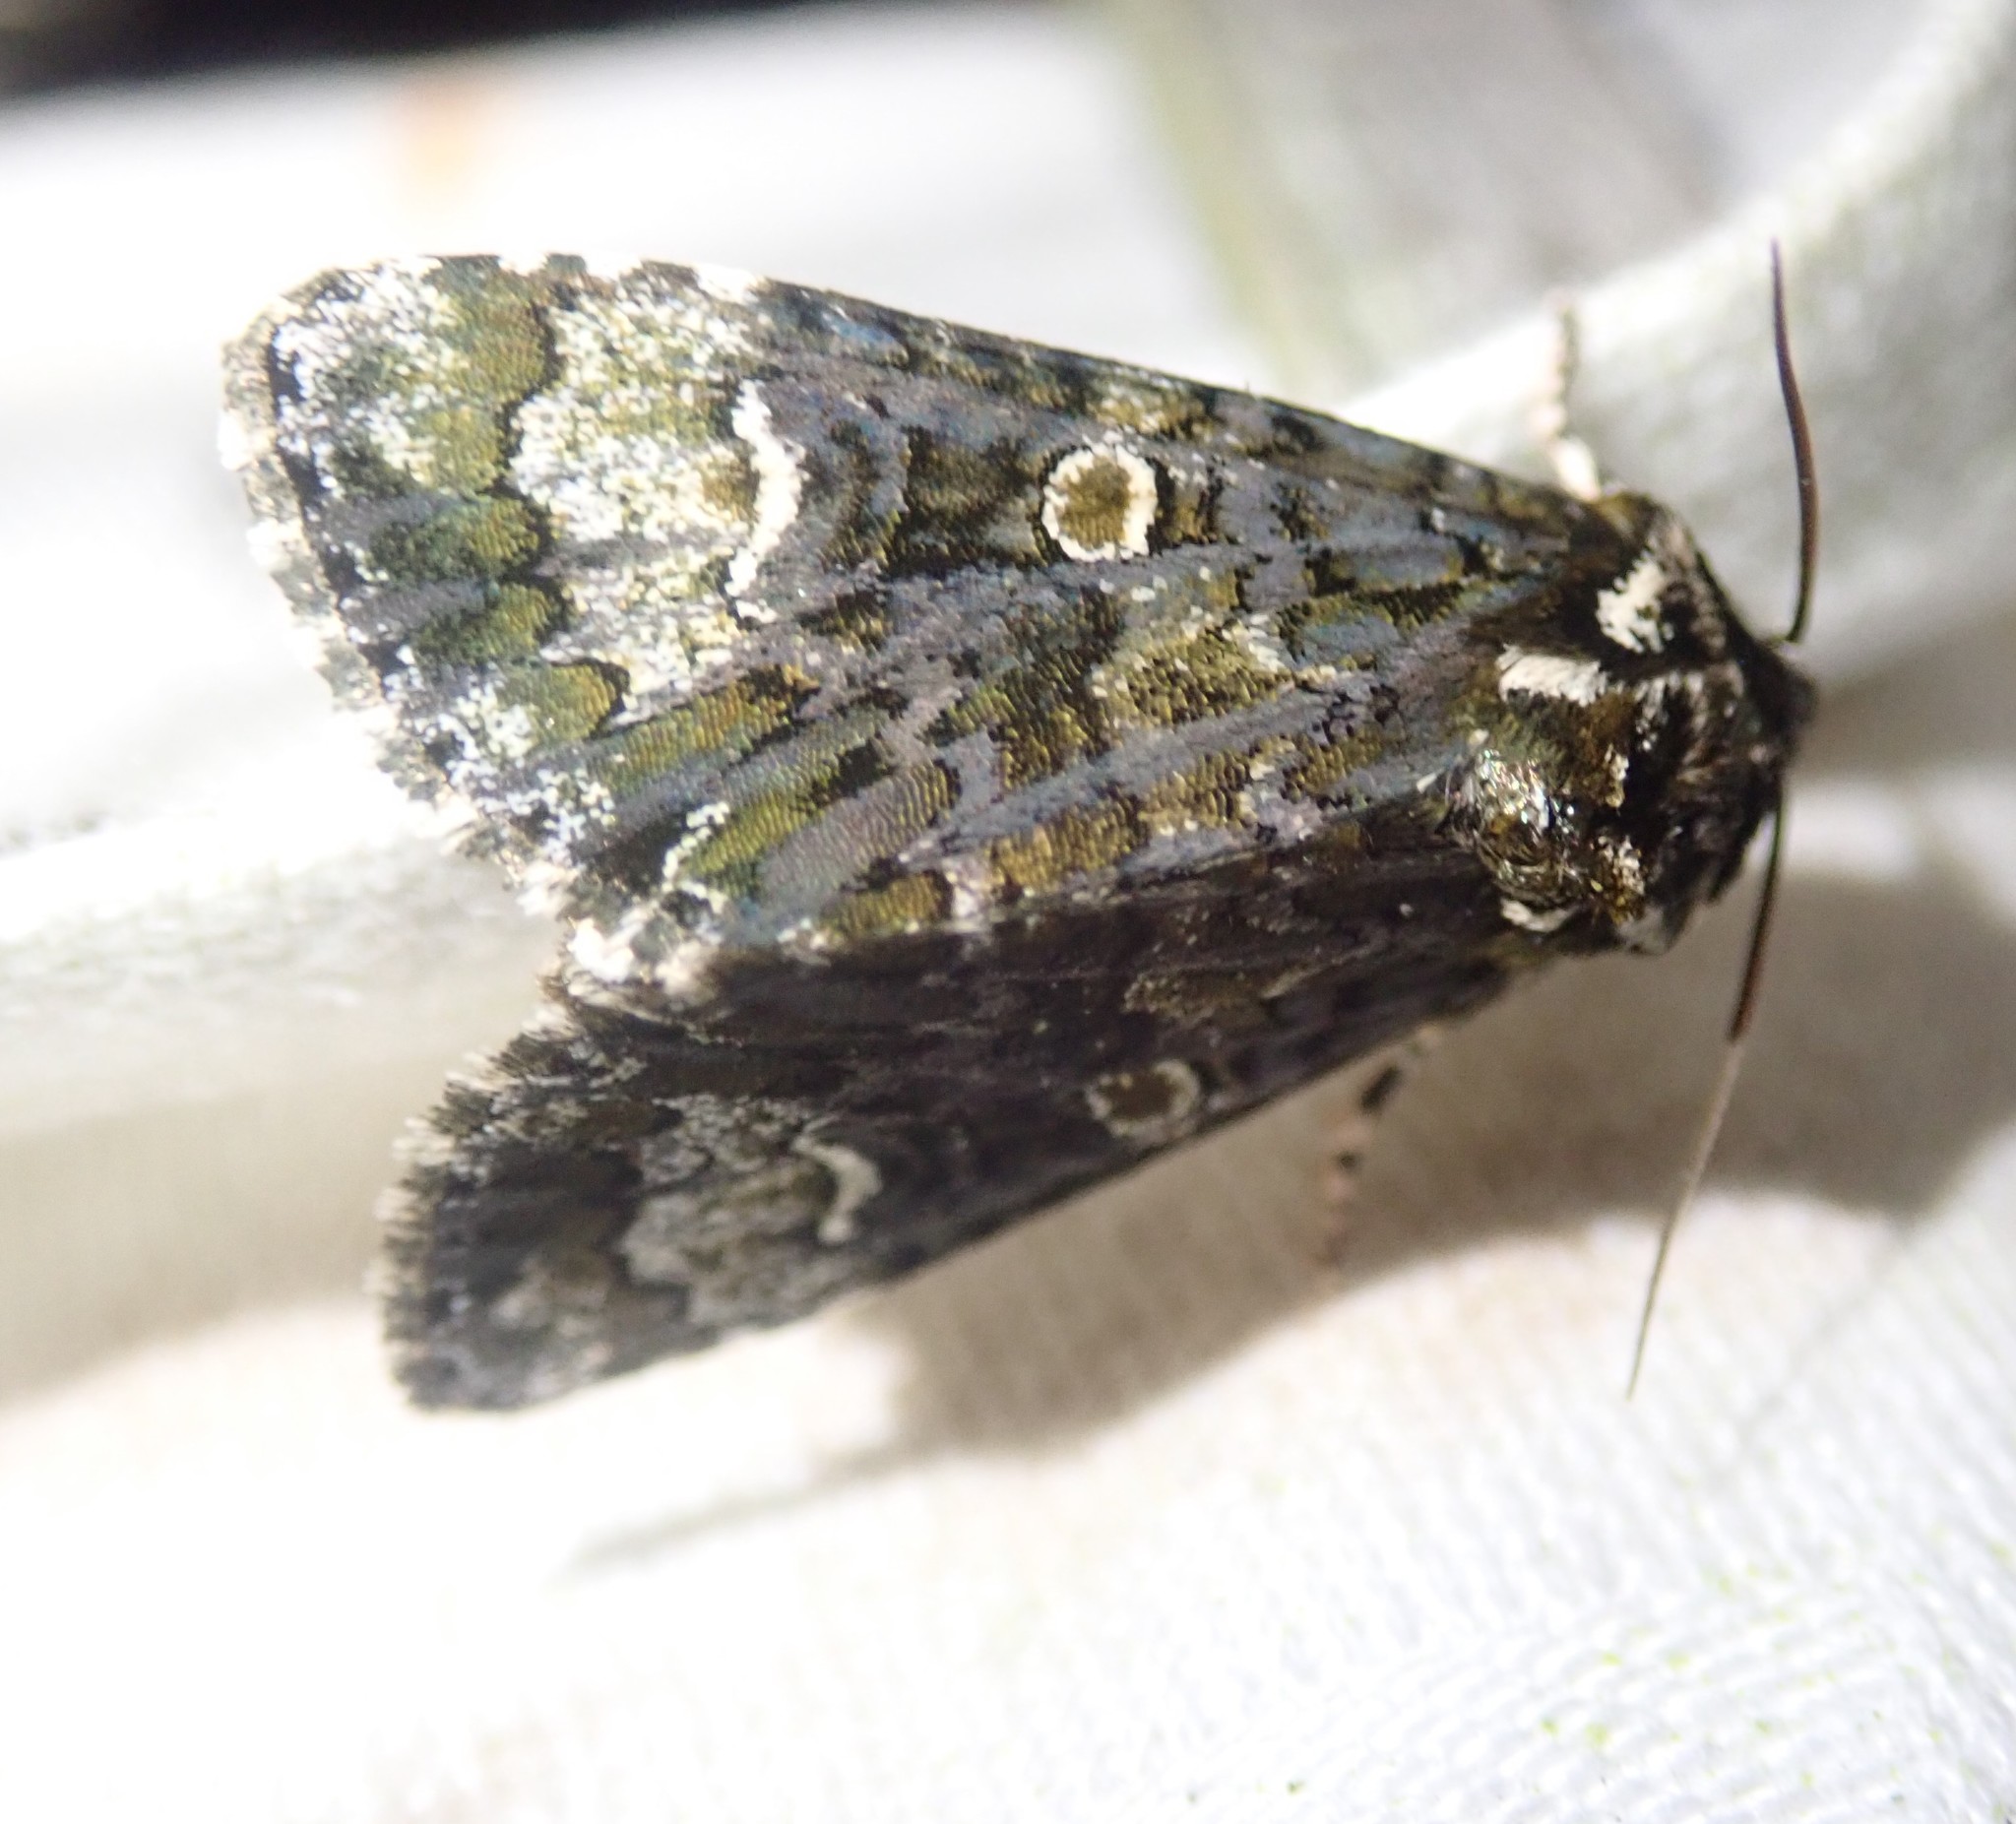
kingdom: Animalia
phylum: Arthropoda
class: Insecta
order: Lepidoptera
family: Noctuidae
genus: Craniophora
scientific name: Craniophora ligustri
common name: Coronet
